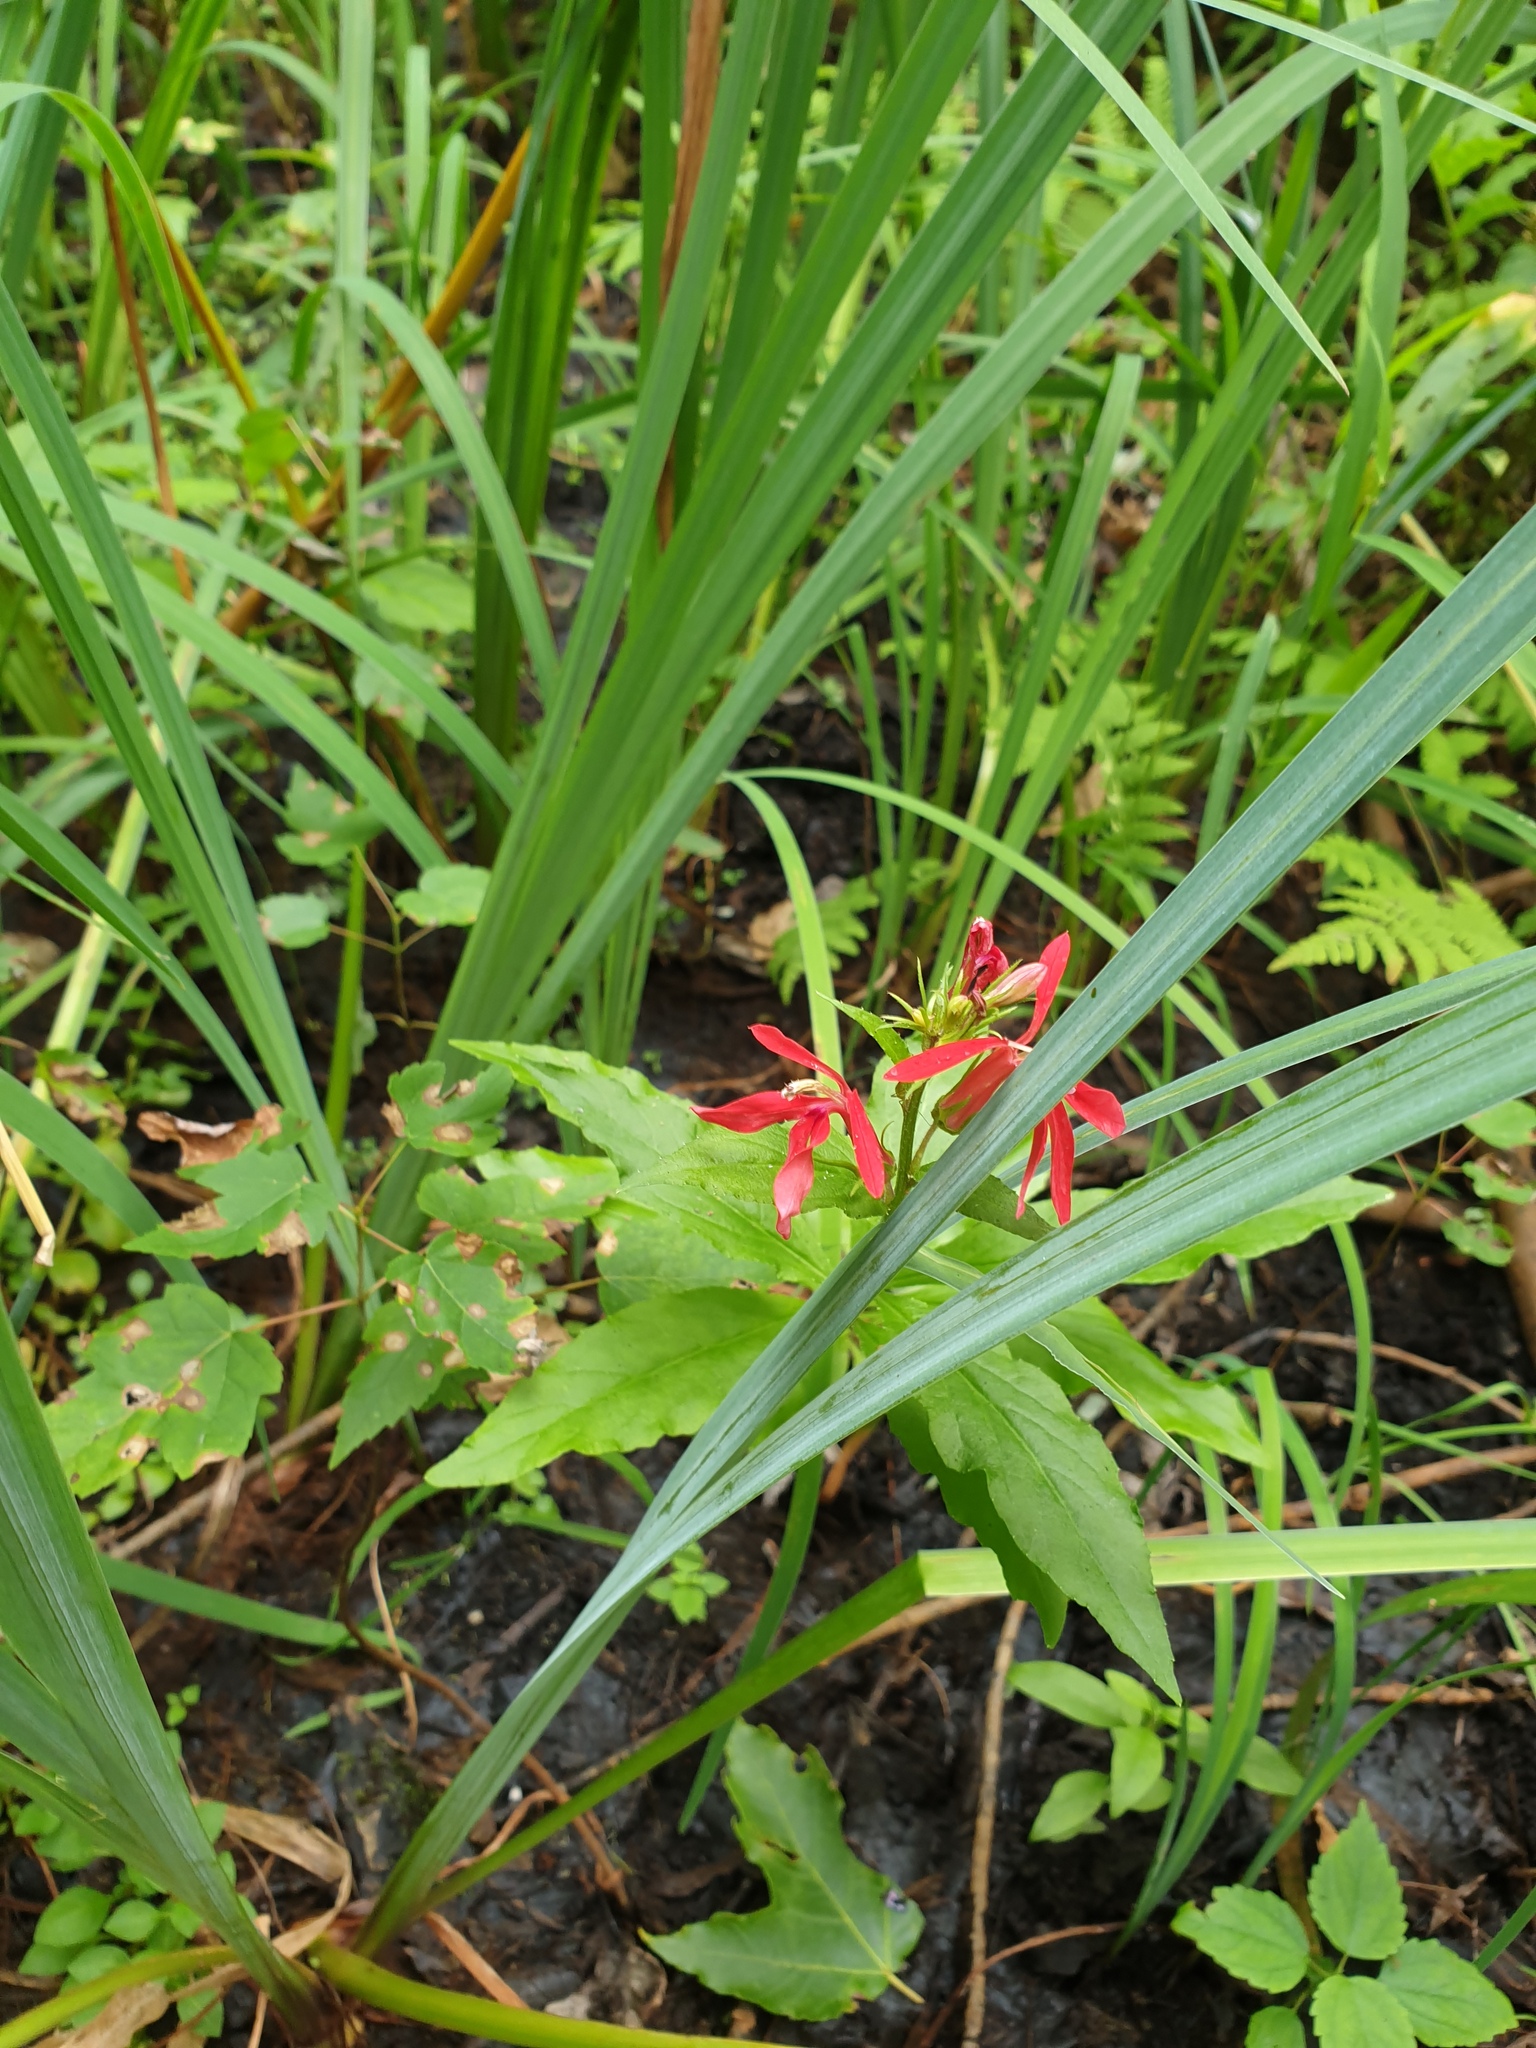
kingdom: Plantae
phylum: Tracheophyta
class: Magnoliopsida
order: Asterales
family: Campanulaceae
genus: Lobelia
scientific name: Lobelia cardinalis
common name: Cardinal flower
